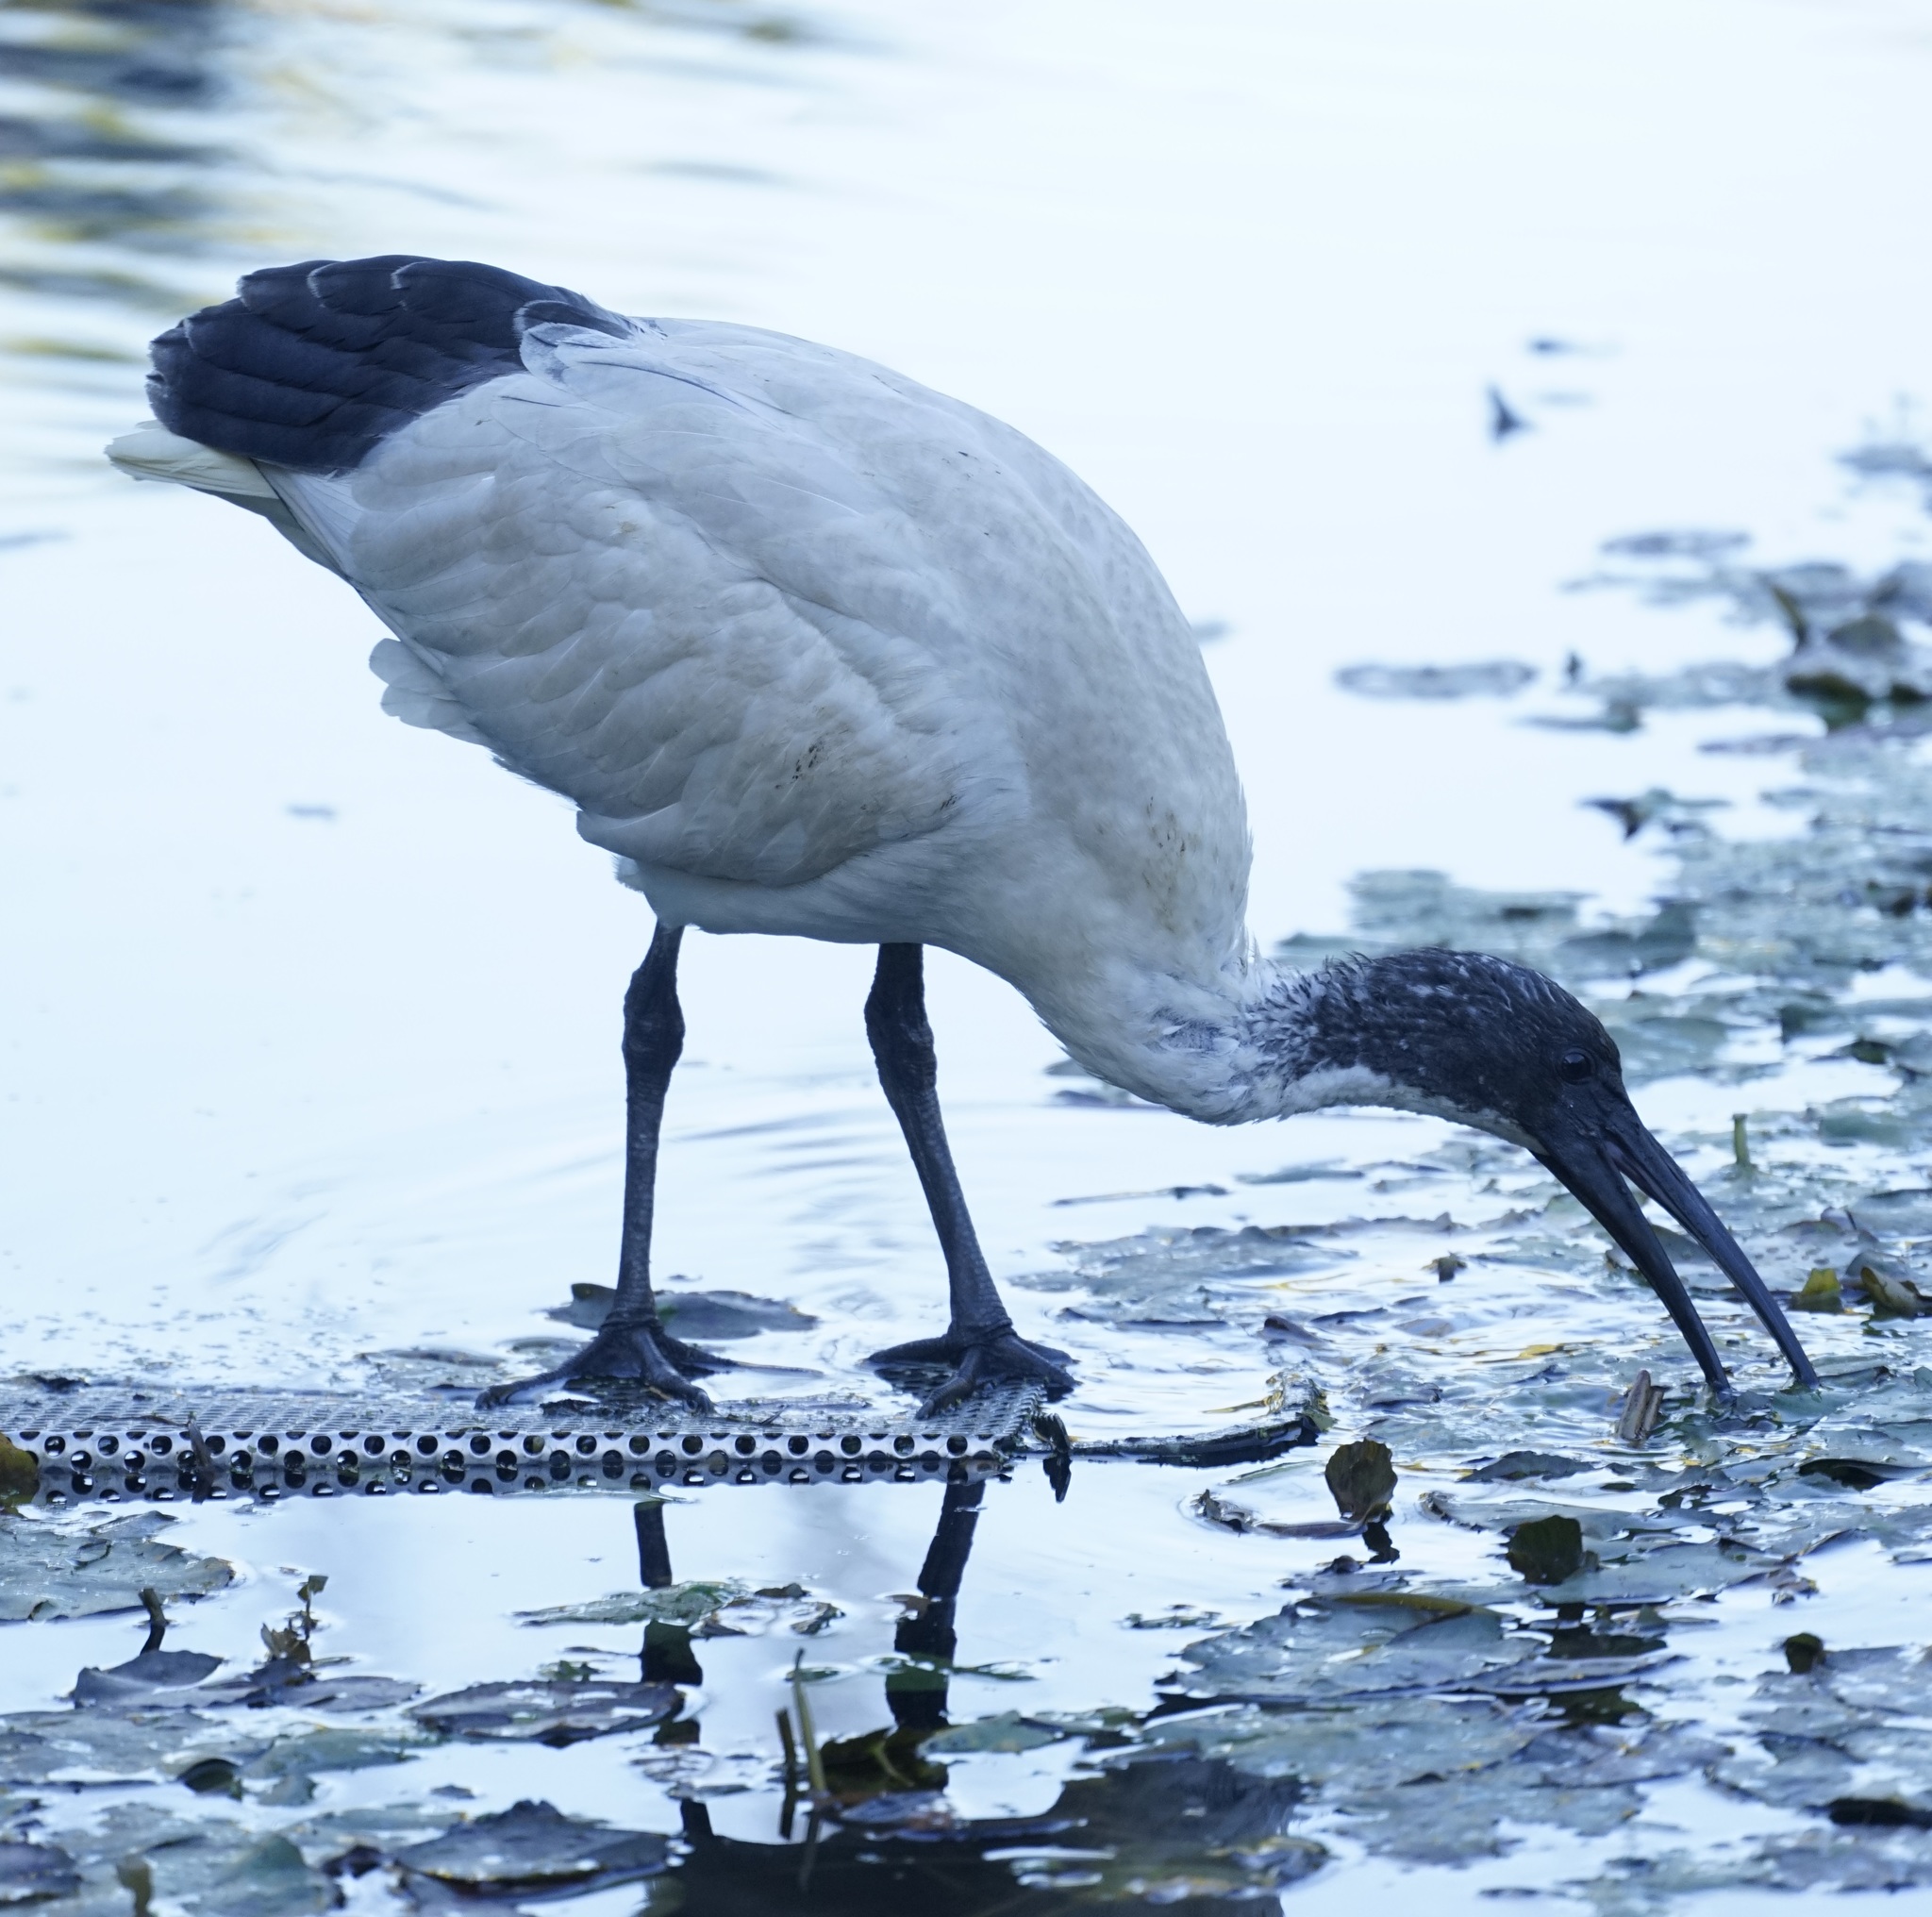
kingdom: Animalia
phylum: Chordata
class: Aves
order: Pelecaniformes
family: Threskiornithidae
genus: Threskiornis
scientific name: Threskiornis molucca
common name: Australian white ibis
